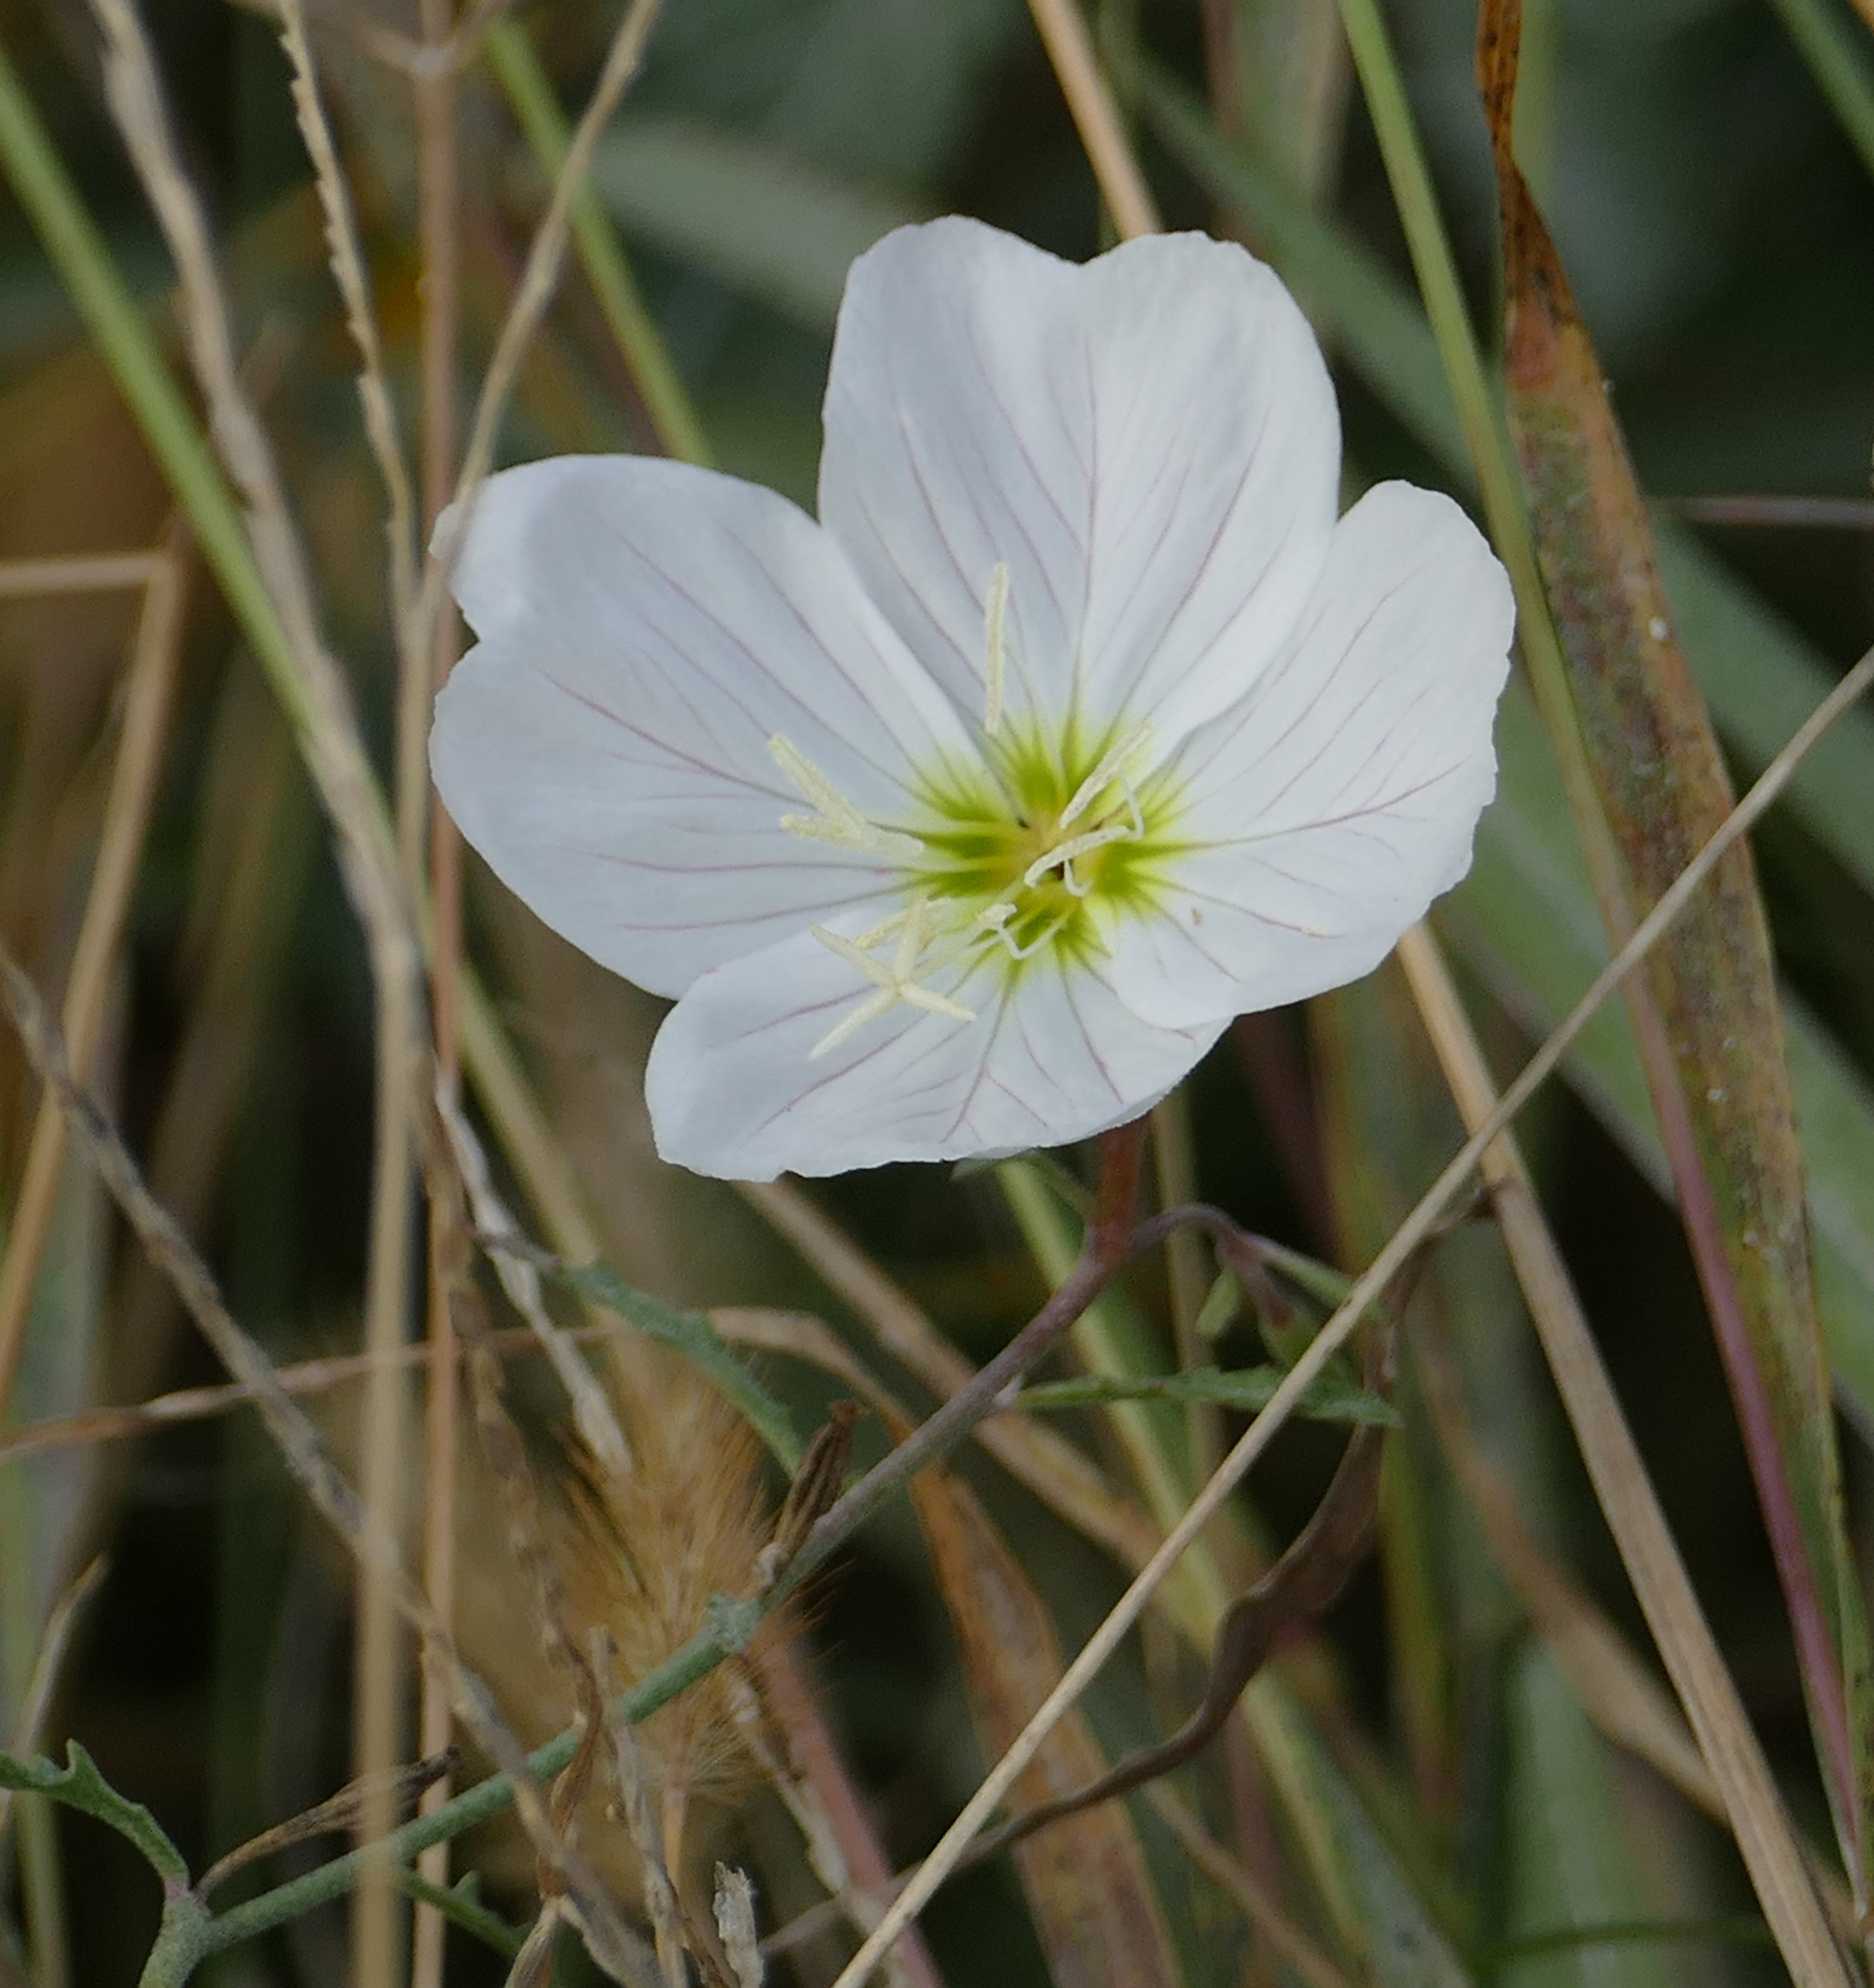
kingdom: Plantae
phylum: Tracheophyta
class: Magnoliopsida
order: Myrtales
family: Onagraceae
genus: Oenothera
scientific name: Oenothera speciosa
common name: White evening-primrose
